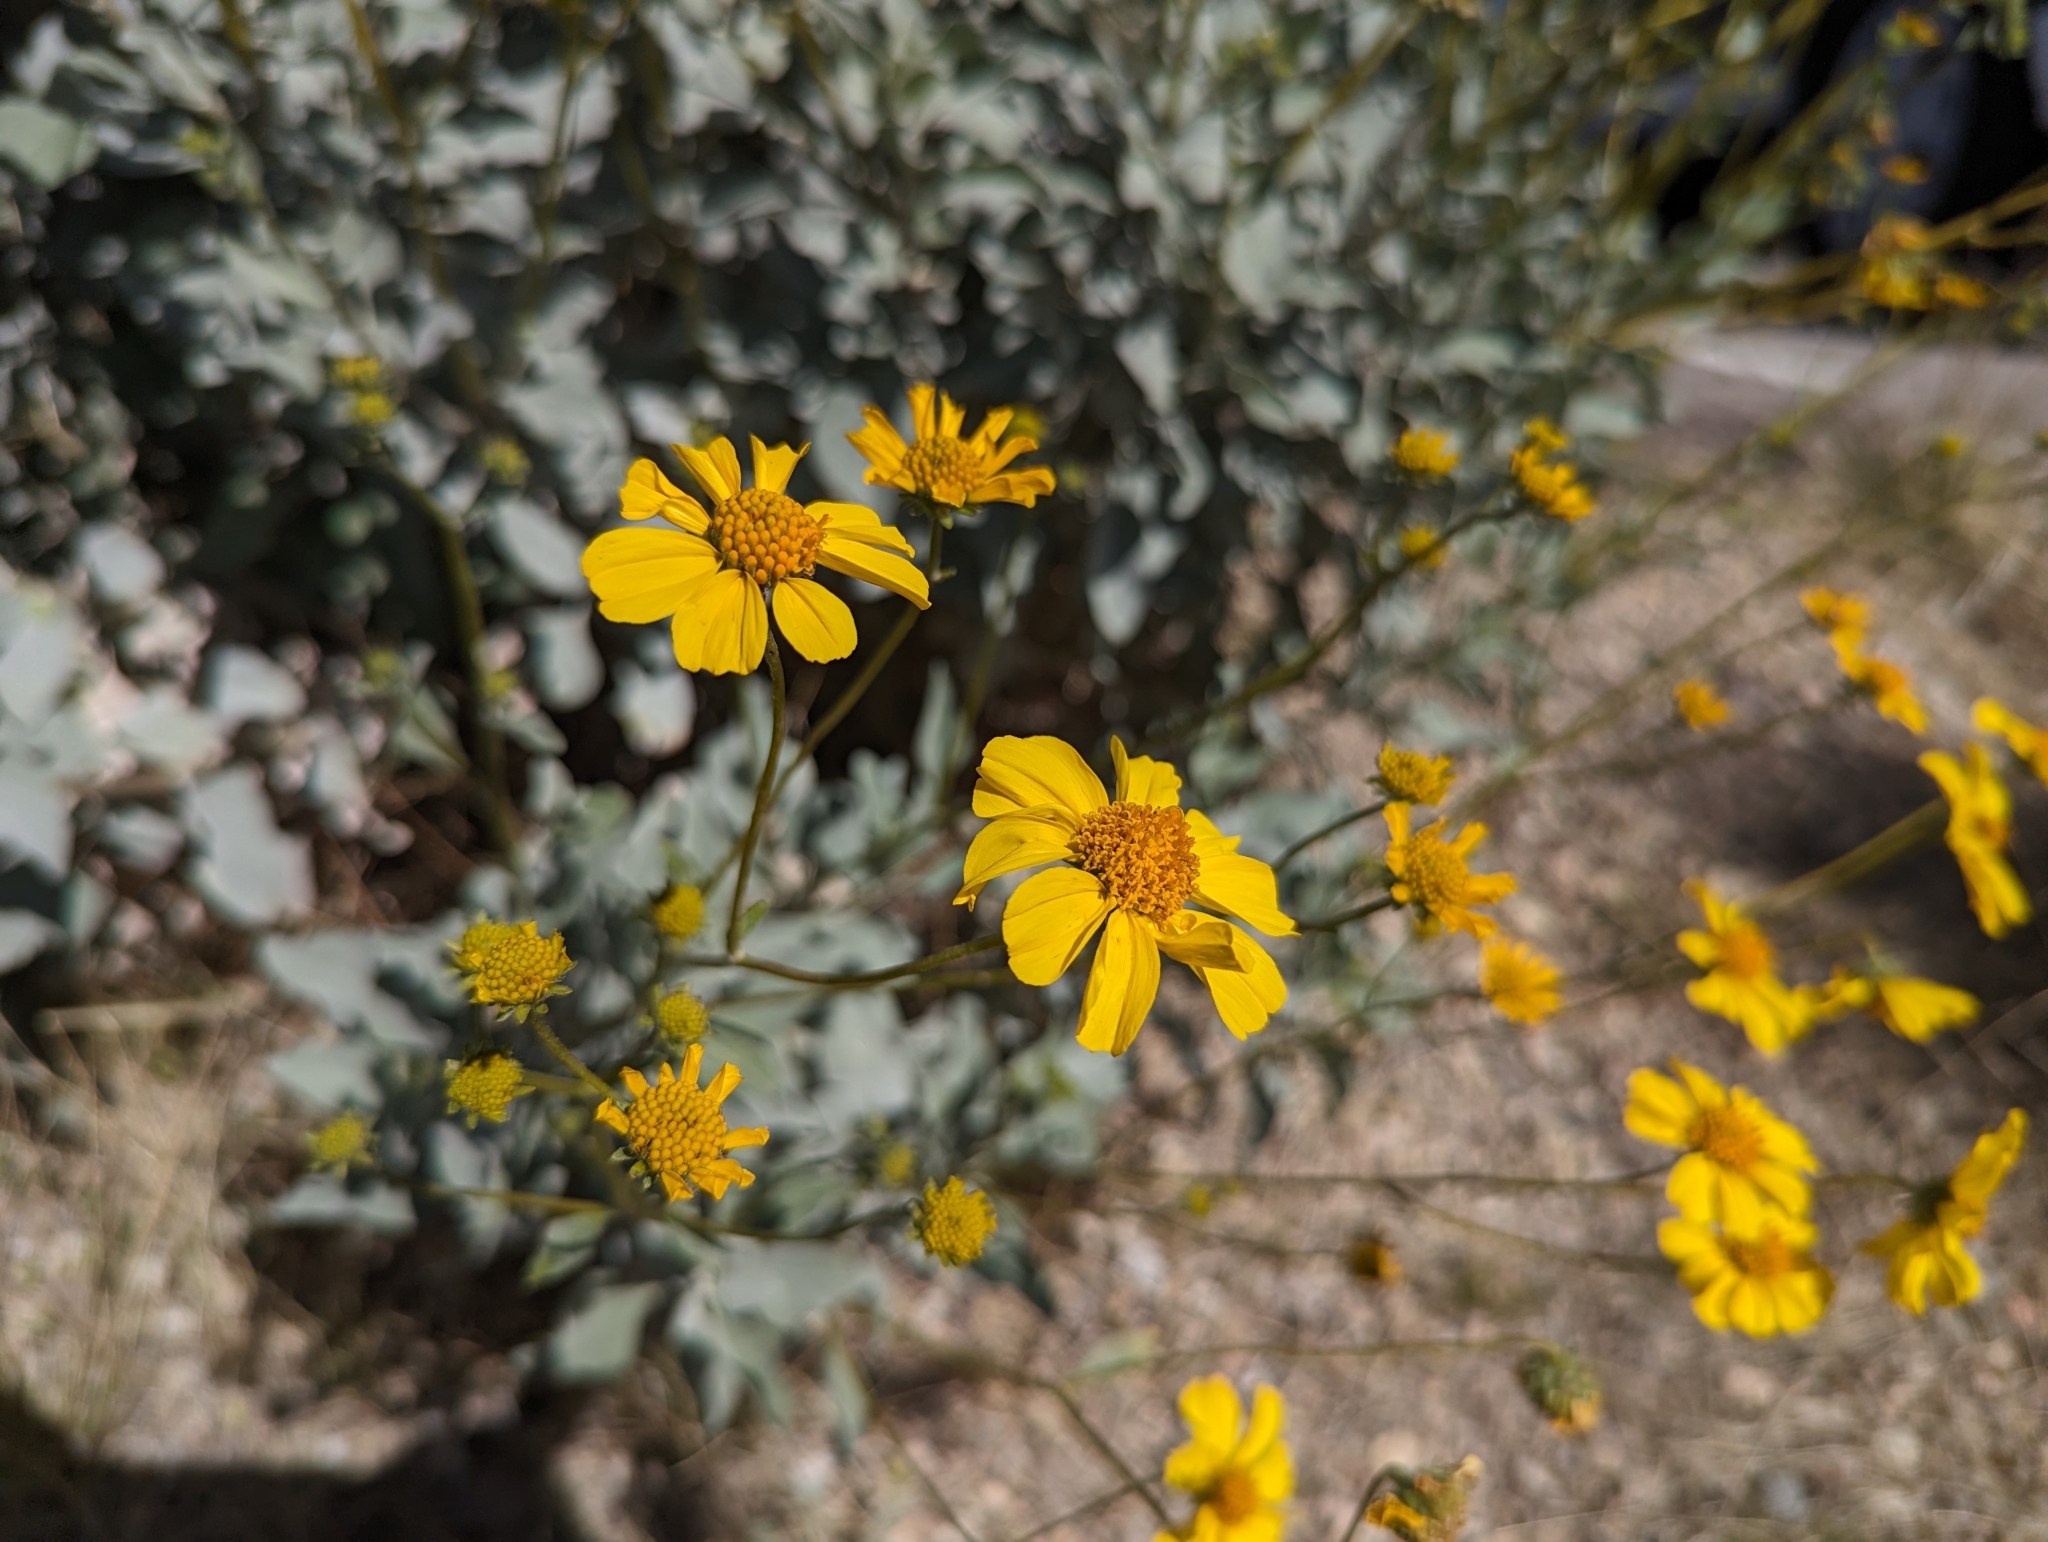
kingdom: Plantae
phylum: Tracheophyta
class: Magnoliopsida
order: Asterales
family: Asteraceae
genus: Encelia
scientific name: Encelia farinosa
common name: Brittlebush
